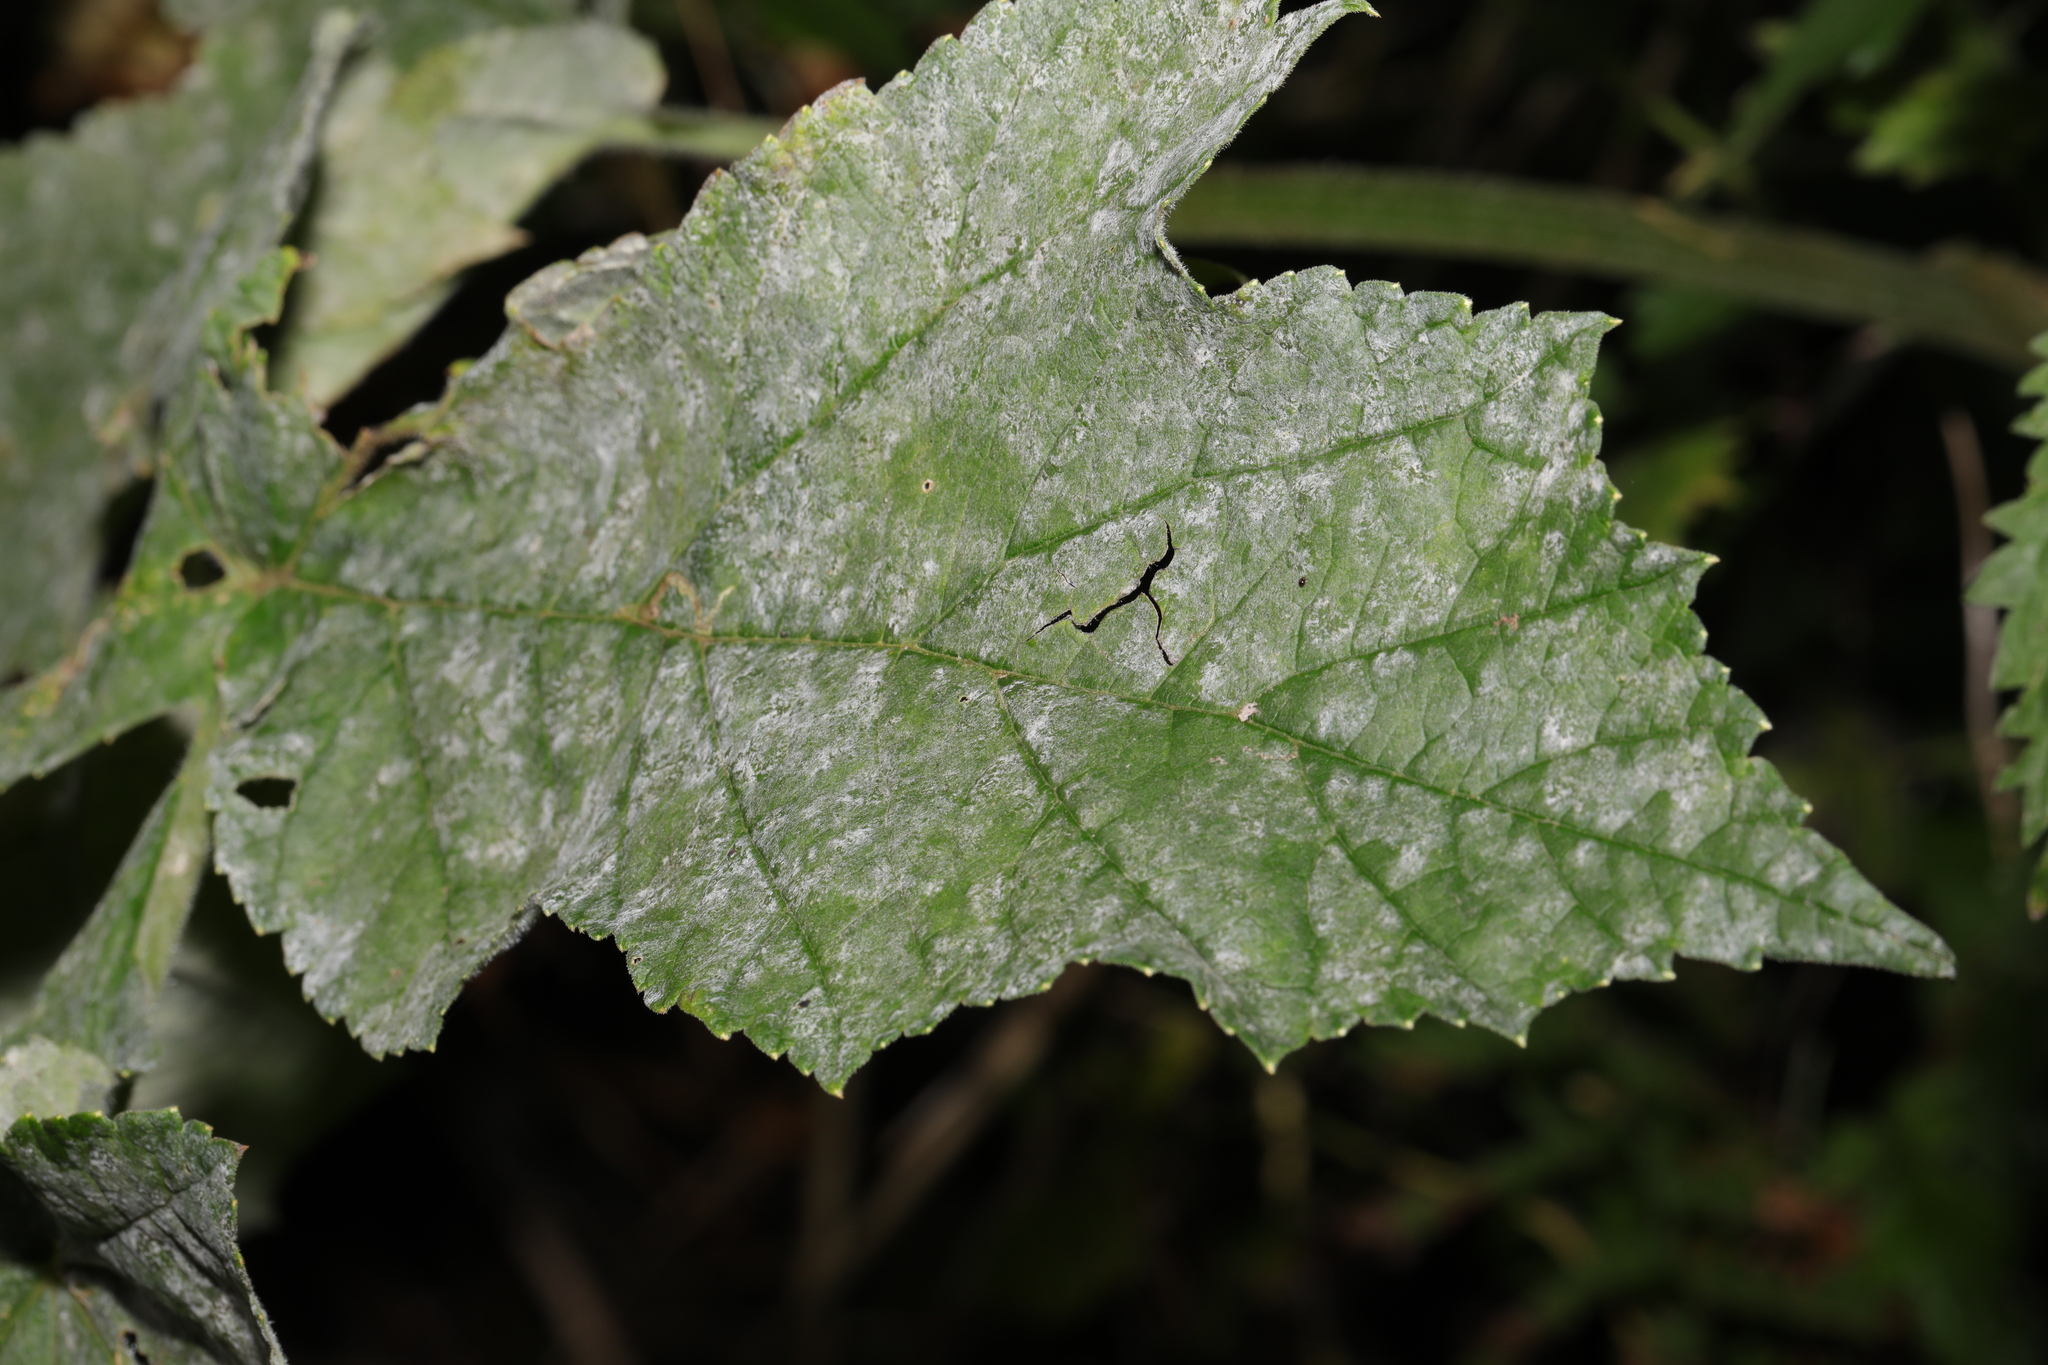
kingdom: Fungi
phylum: Ascomycota
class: Leotiomycetes
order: Helotiales
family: Erysiphaceae
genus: Erysiphe
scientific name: Erysiphe heraclei
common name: Umbellifer mildew
